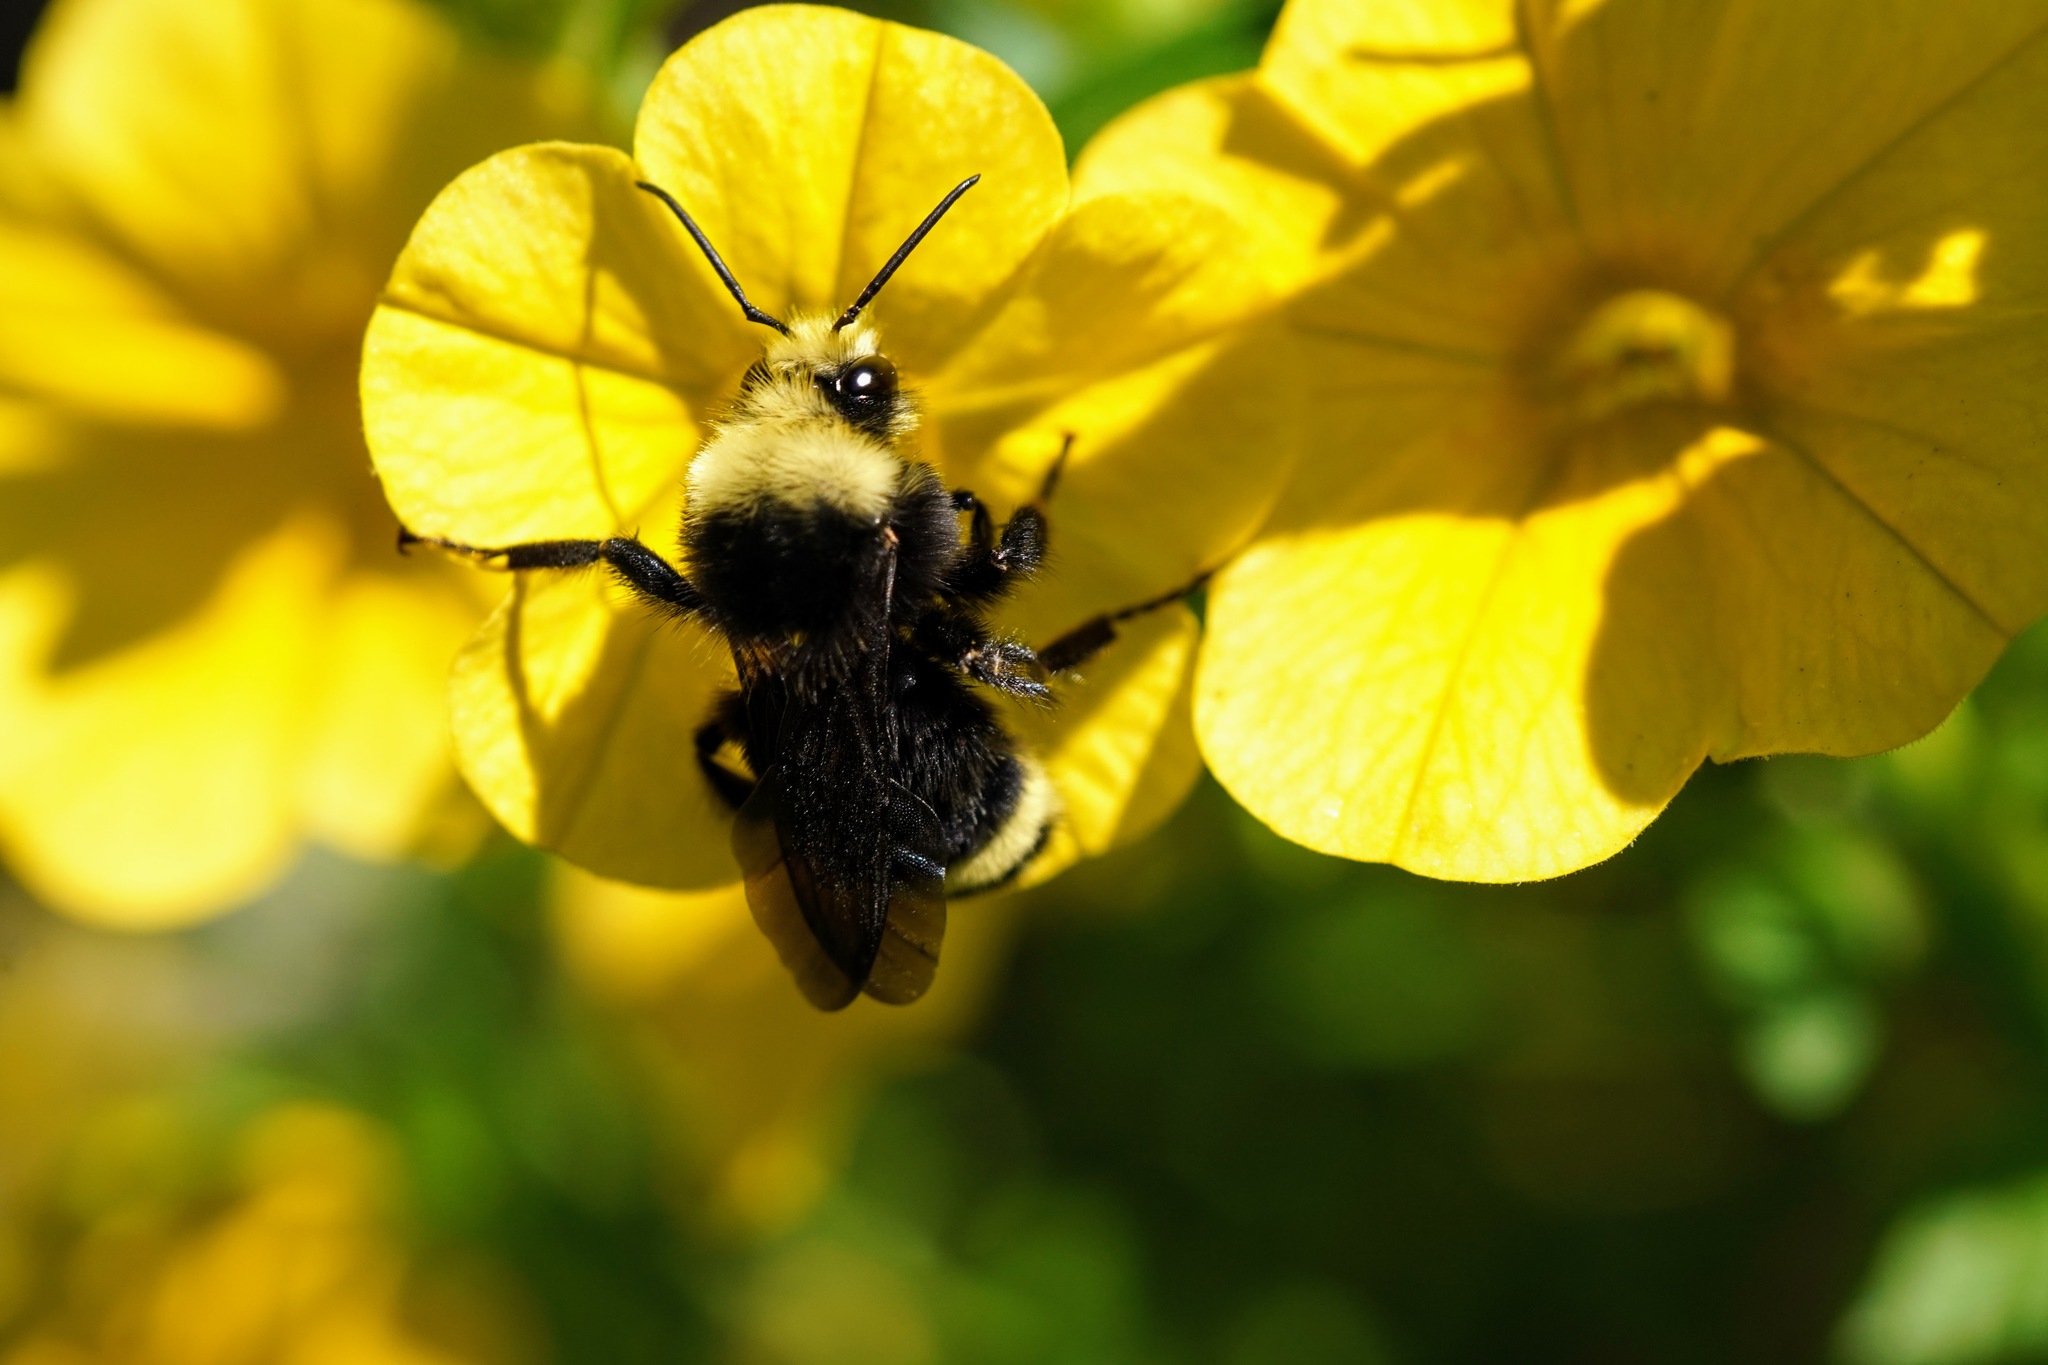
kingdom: Animalia
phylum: Arthropoda
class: Insecta
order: Hymenoptera
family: Apidae
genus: Bombus
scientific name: Bombus vosnesenskii
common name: Vosnesensky bumble bee
